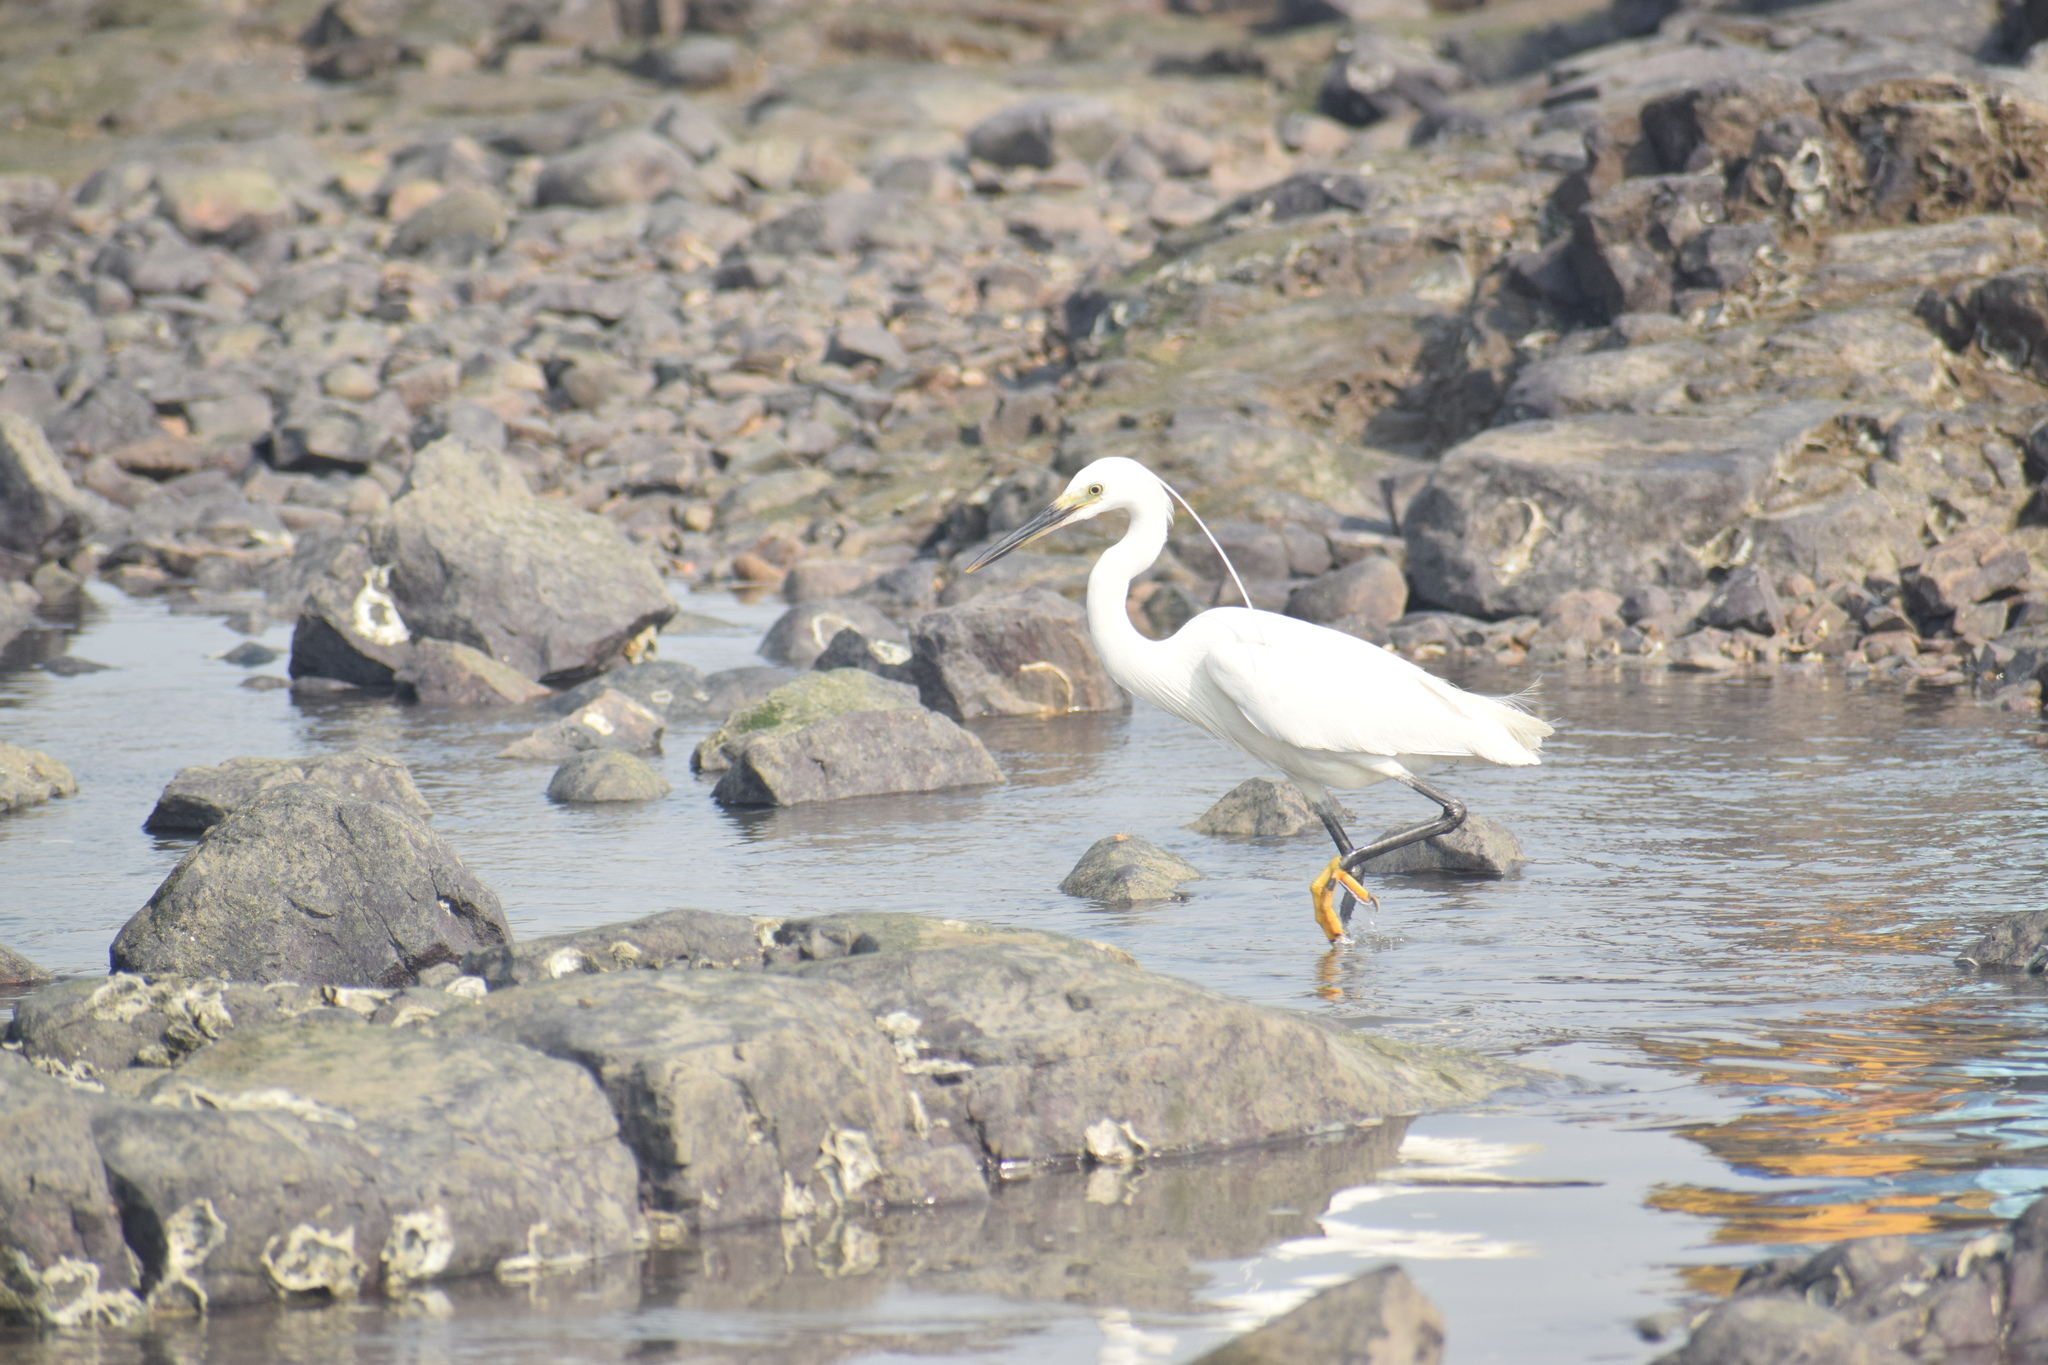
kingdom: Animalia
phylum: Chordata
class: Aves
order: Pelecaniformes
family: Ardeidae
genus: Egretta
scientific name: Egretta gularis
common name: Western reef-heron
